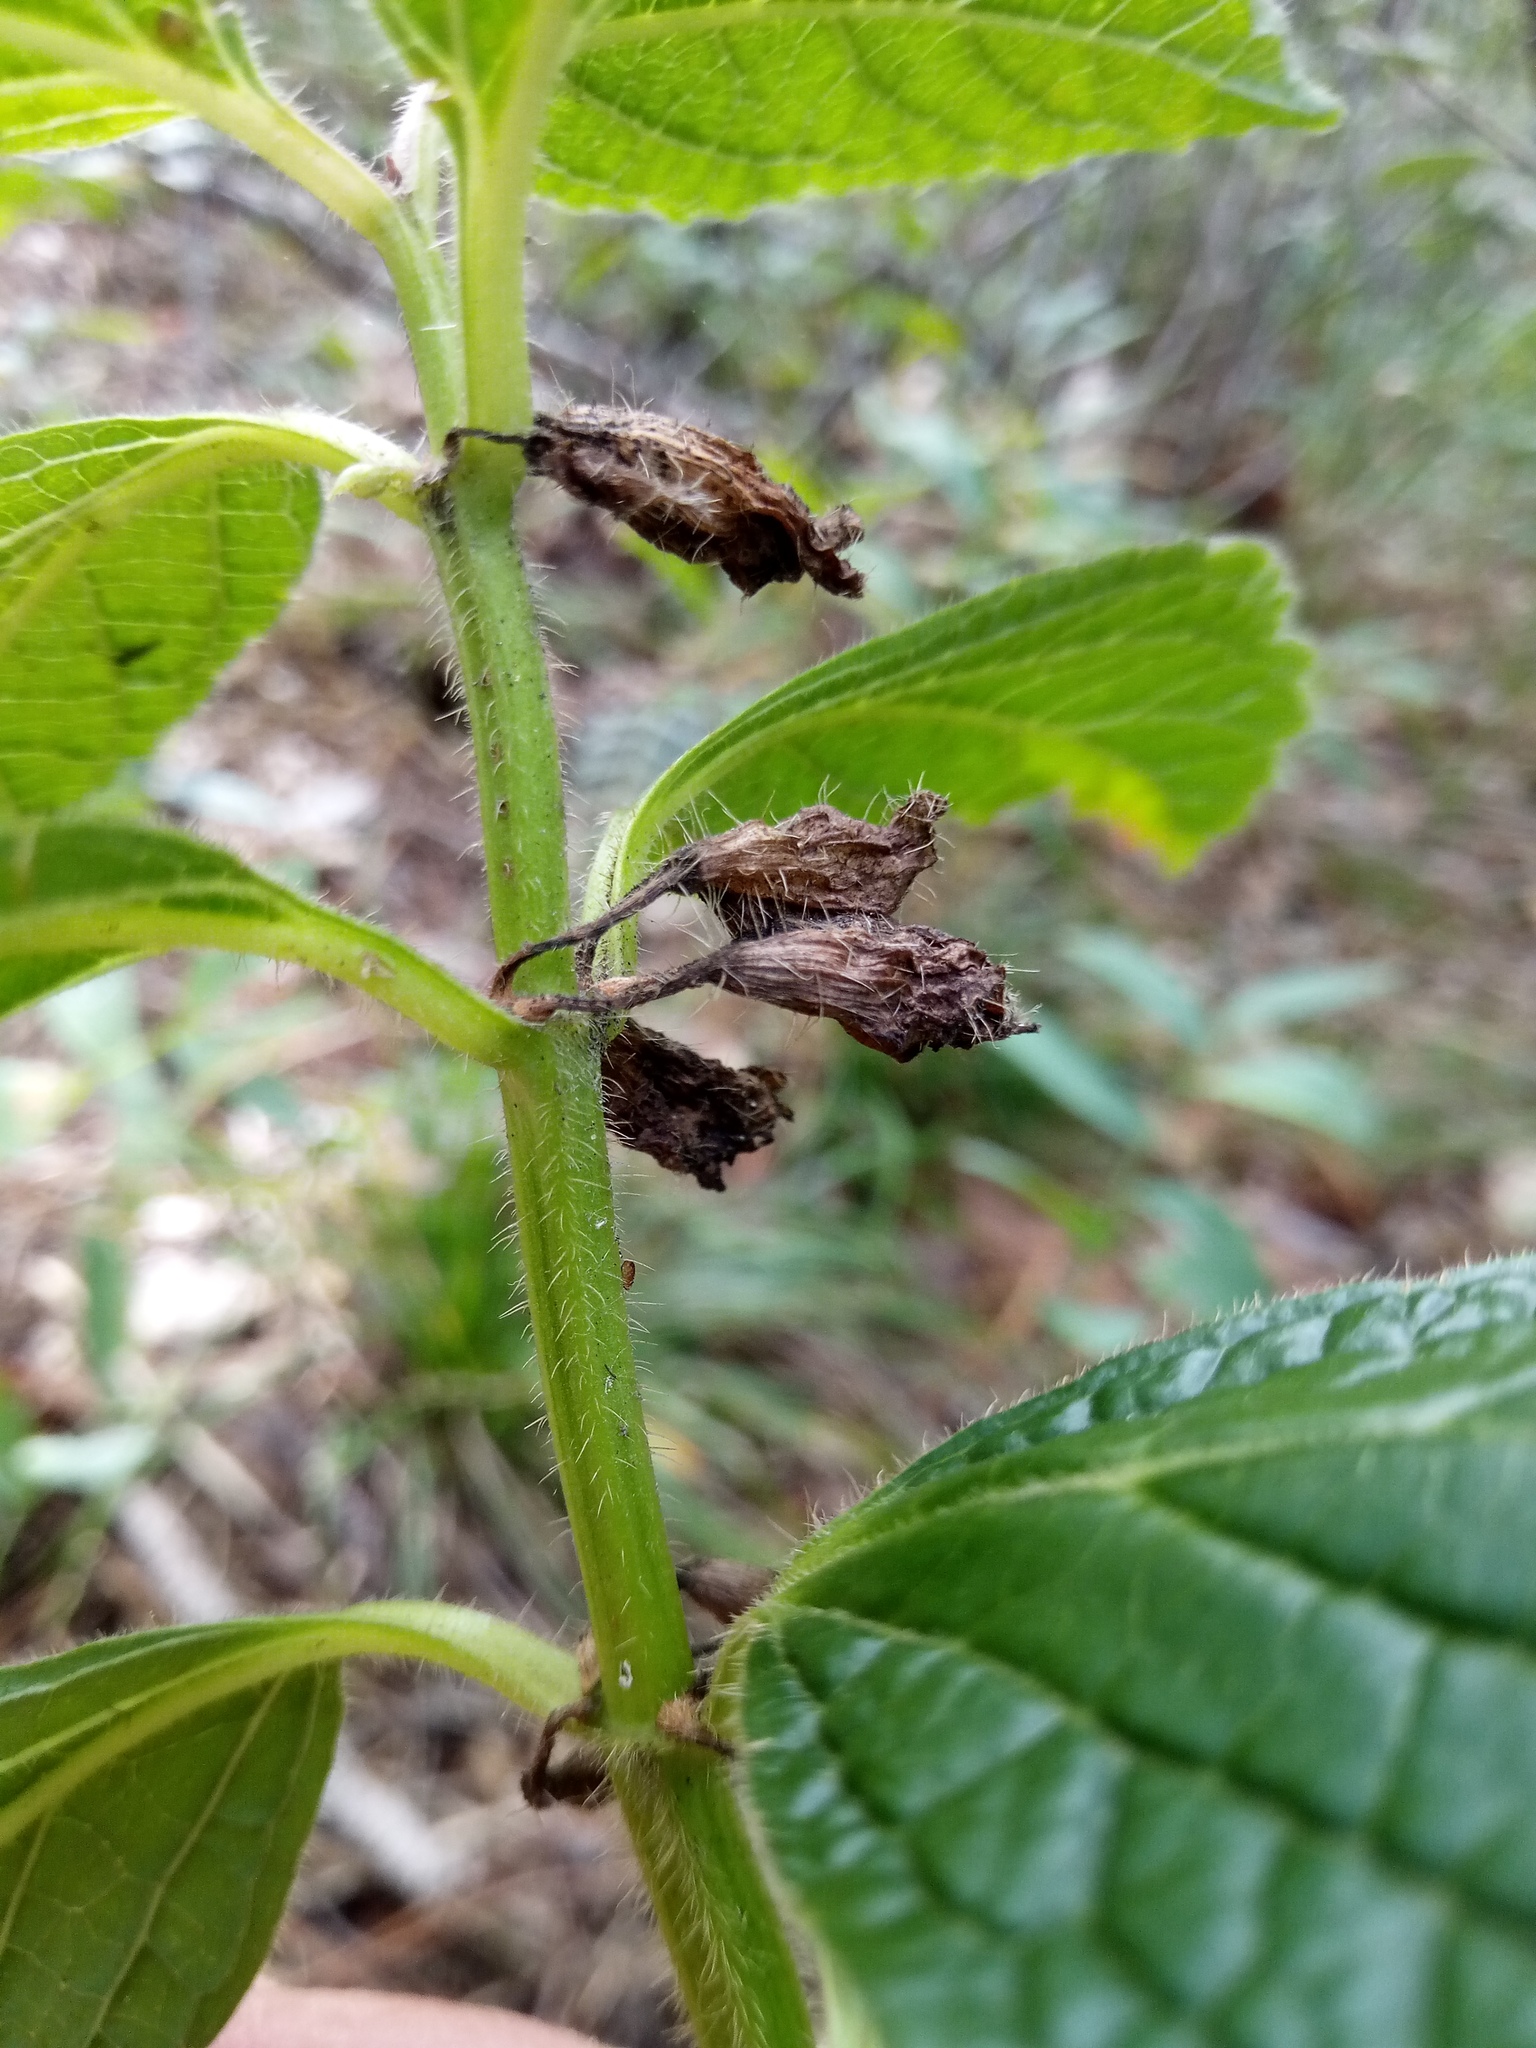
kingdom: Plantae
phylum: Tracheophyta
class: Magnoliopsida
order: Lamiales
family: Lamiaceae
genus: Melittis
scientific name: Melittis melissophyllum
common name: Bastard balm
